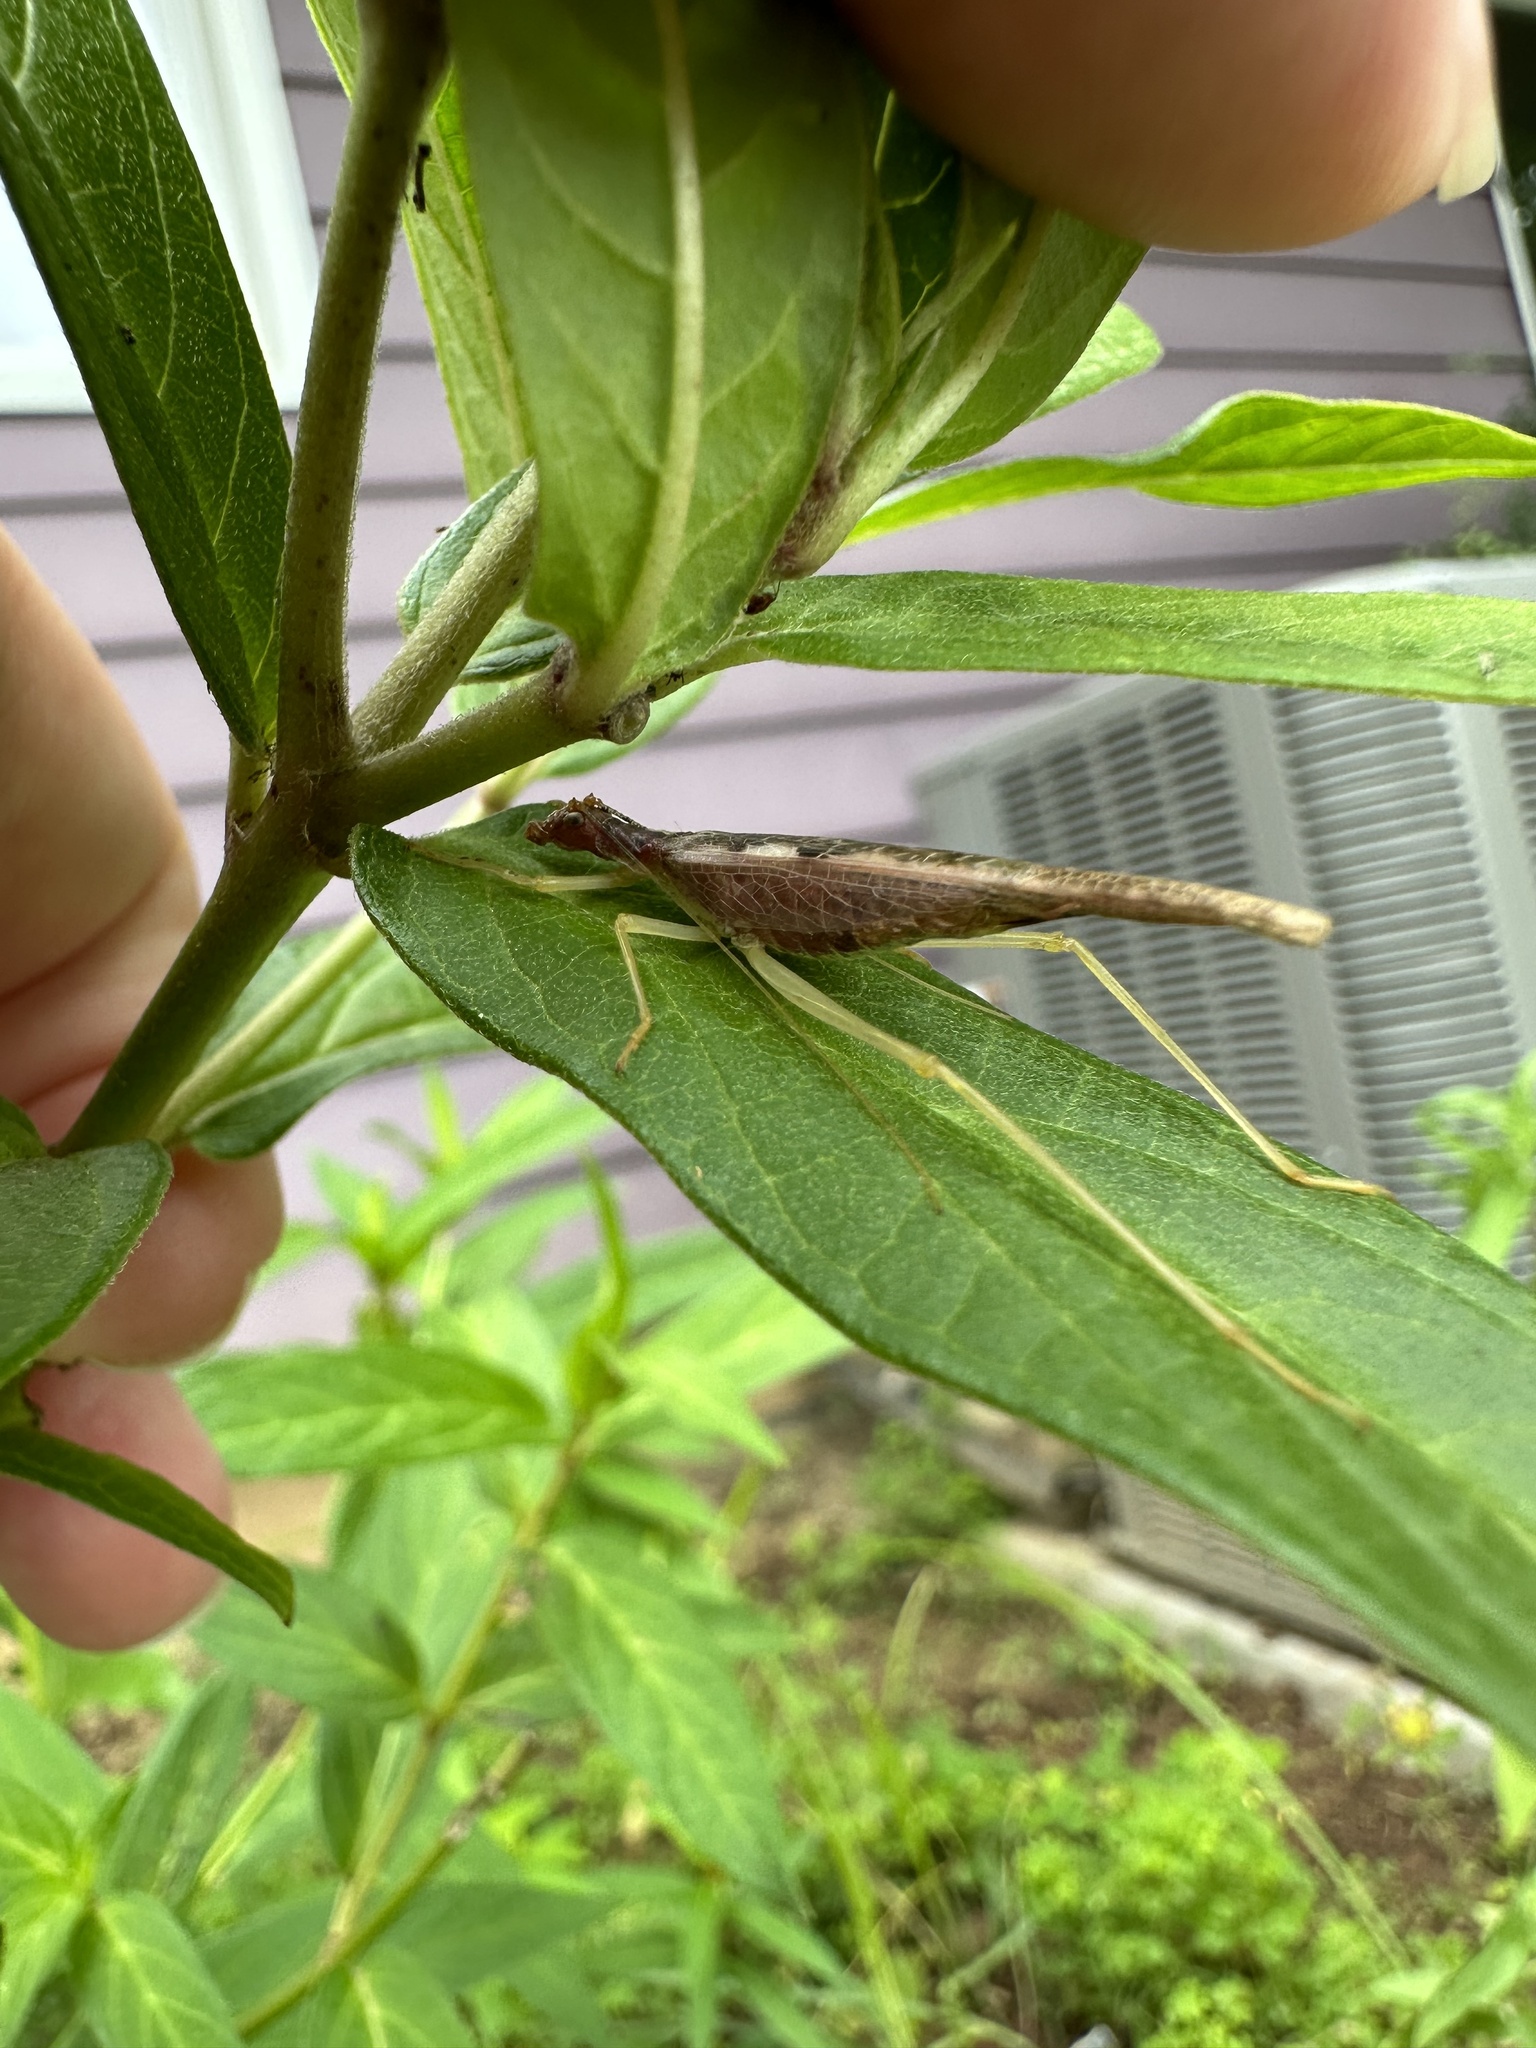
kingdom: Animalia
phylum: Arthropoda
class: Insecta
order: Orthoptera
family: Gryllidae
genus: Neoxabea
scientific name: Neoxabea bipunctata
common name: Two-spotted tree cricket
